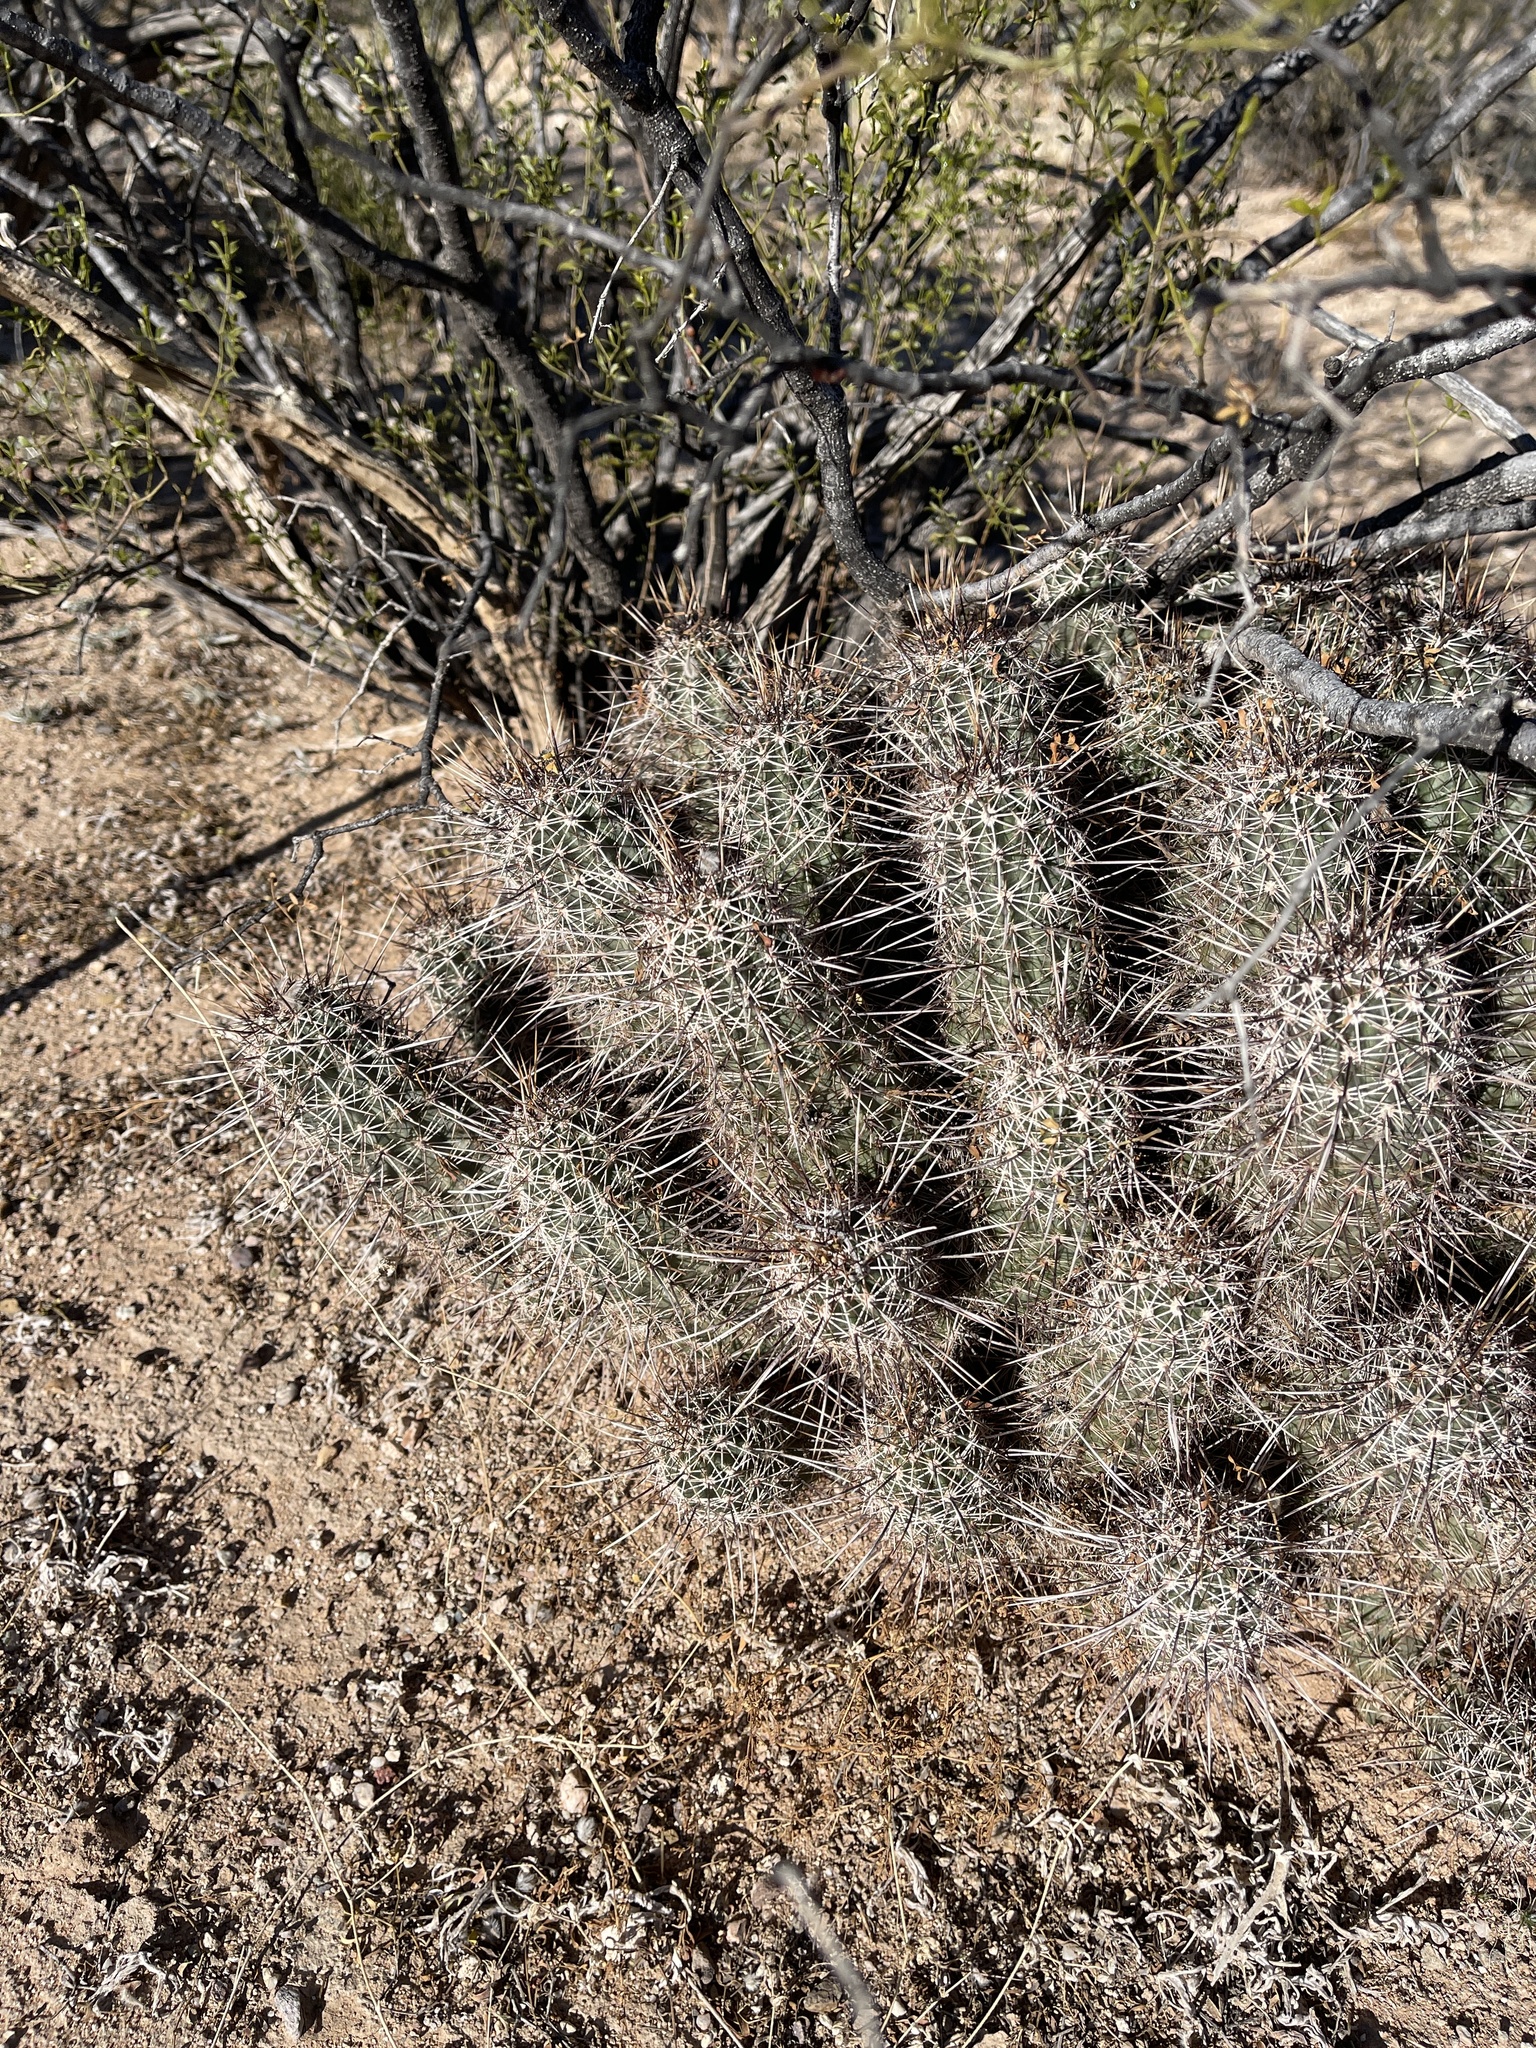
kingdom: Plantae
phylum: Tracheophyta
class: Magnoliopsida
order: Caryophyllales
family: Cactaceae
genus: Echinocereus
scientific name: Echinocereus fasciculatus
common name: Bundle hedgehog
